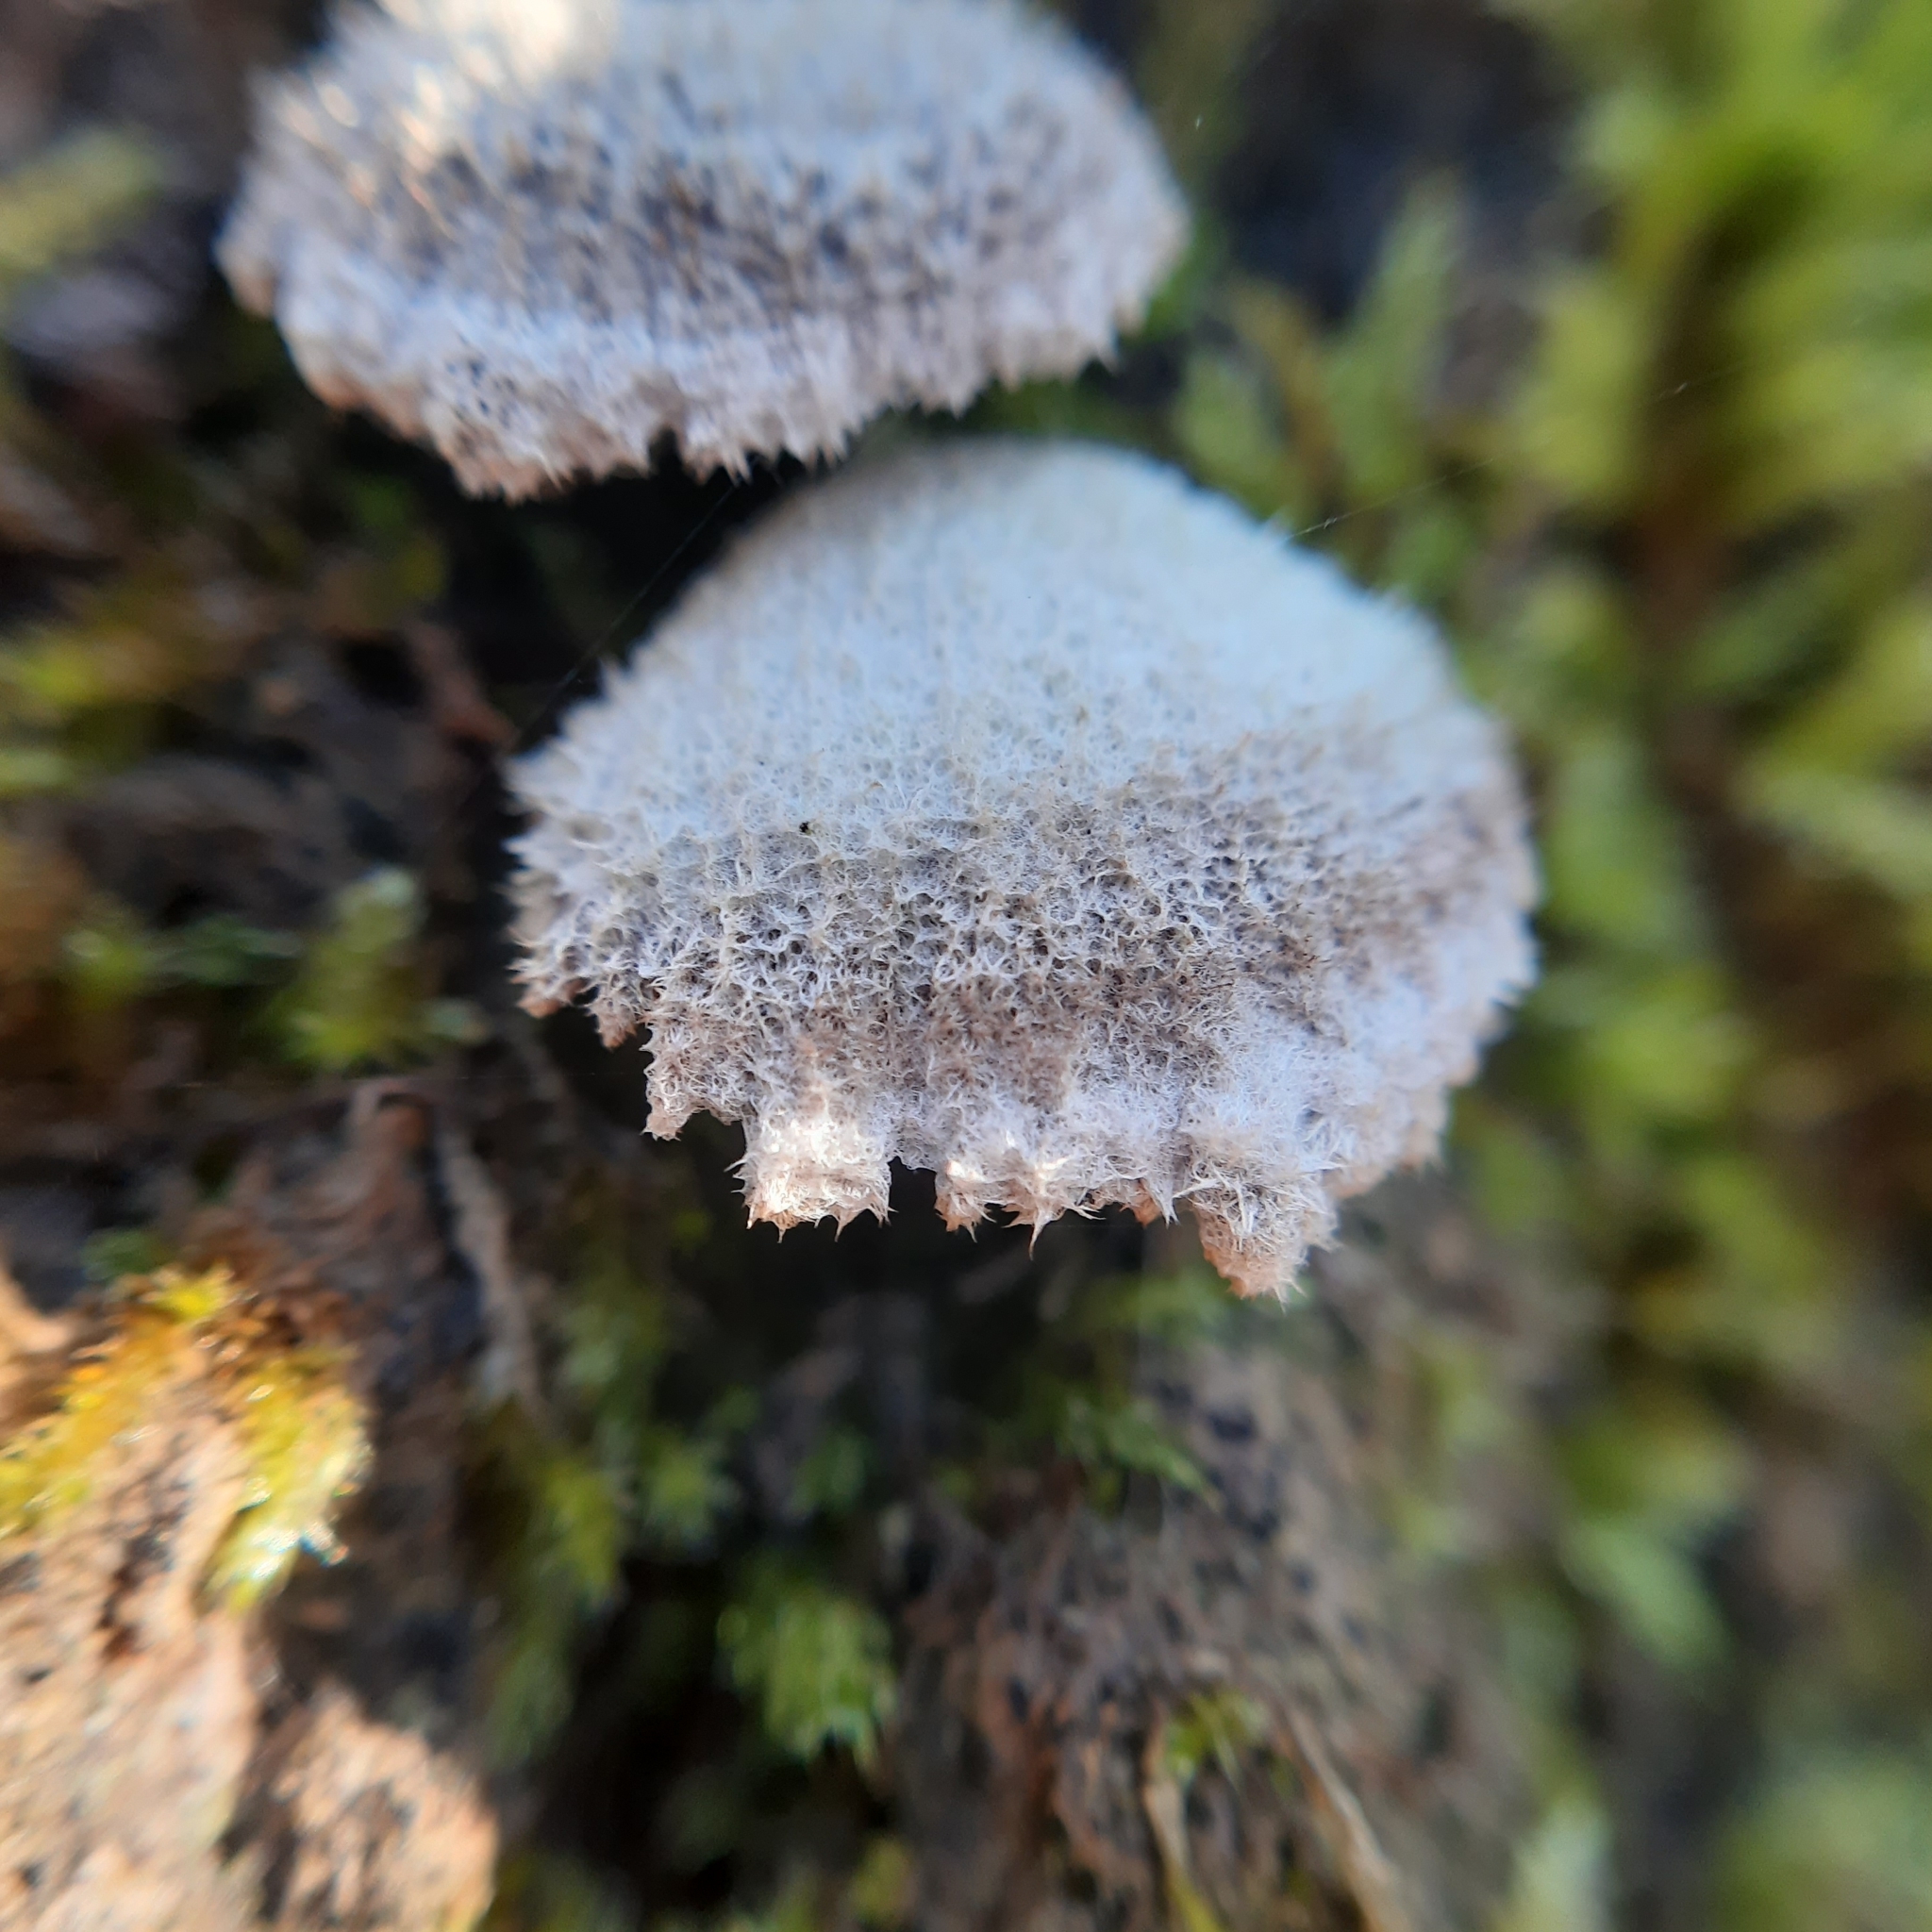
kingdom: Fungi
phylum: Basidiomycota
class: Agaricomycetes
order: Agaricales
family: Schizophyllaceae
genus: Schizophyllum
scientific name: Schizophyllum commune
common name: Common porecrust
